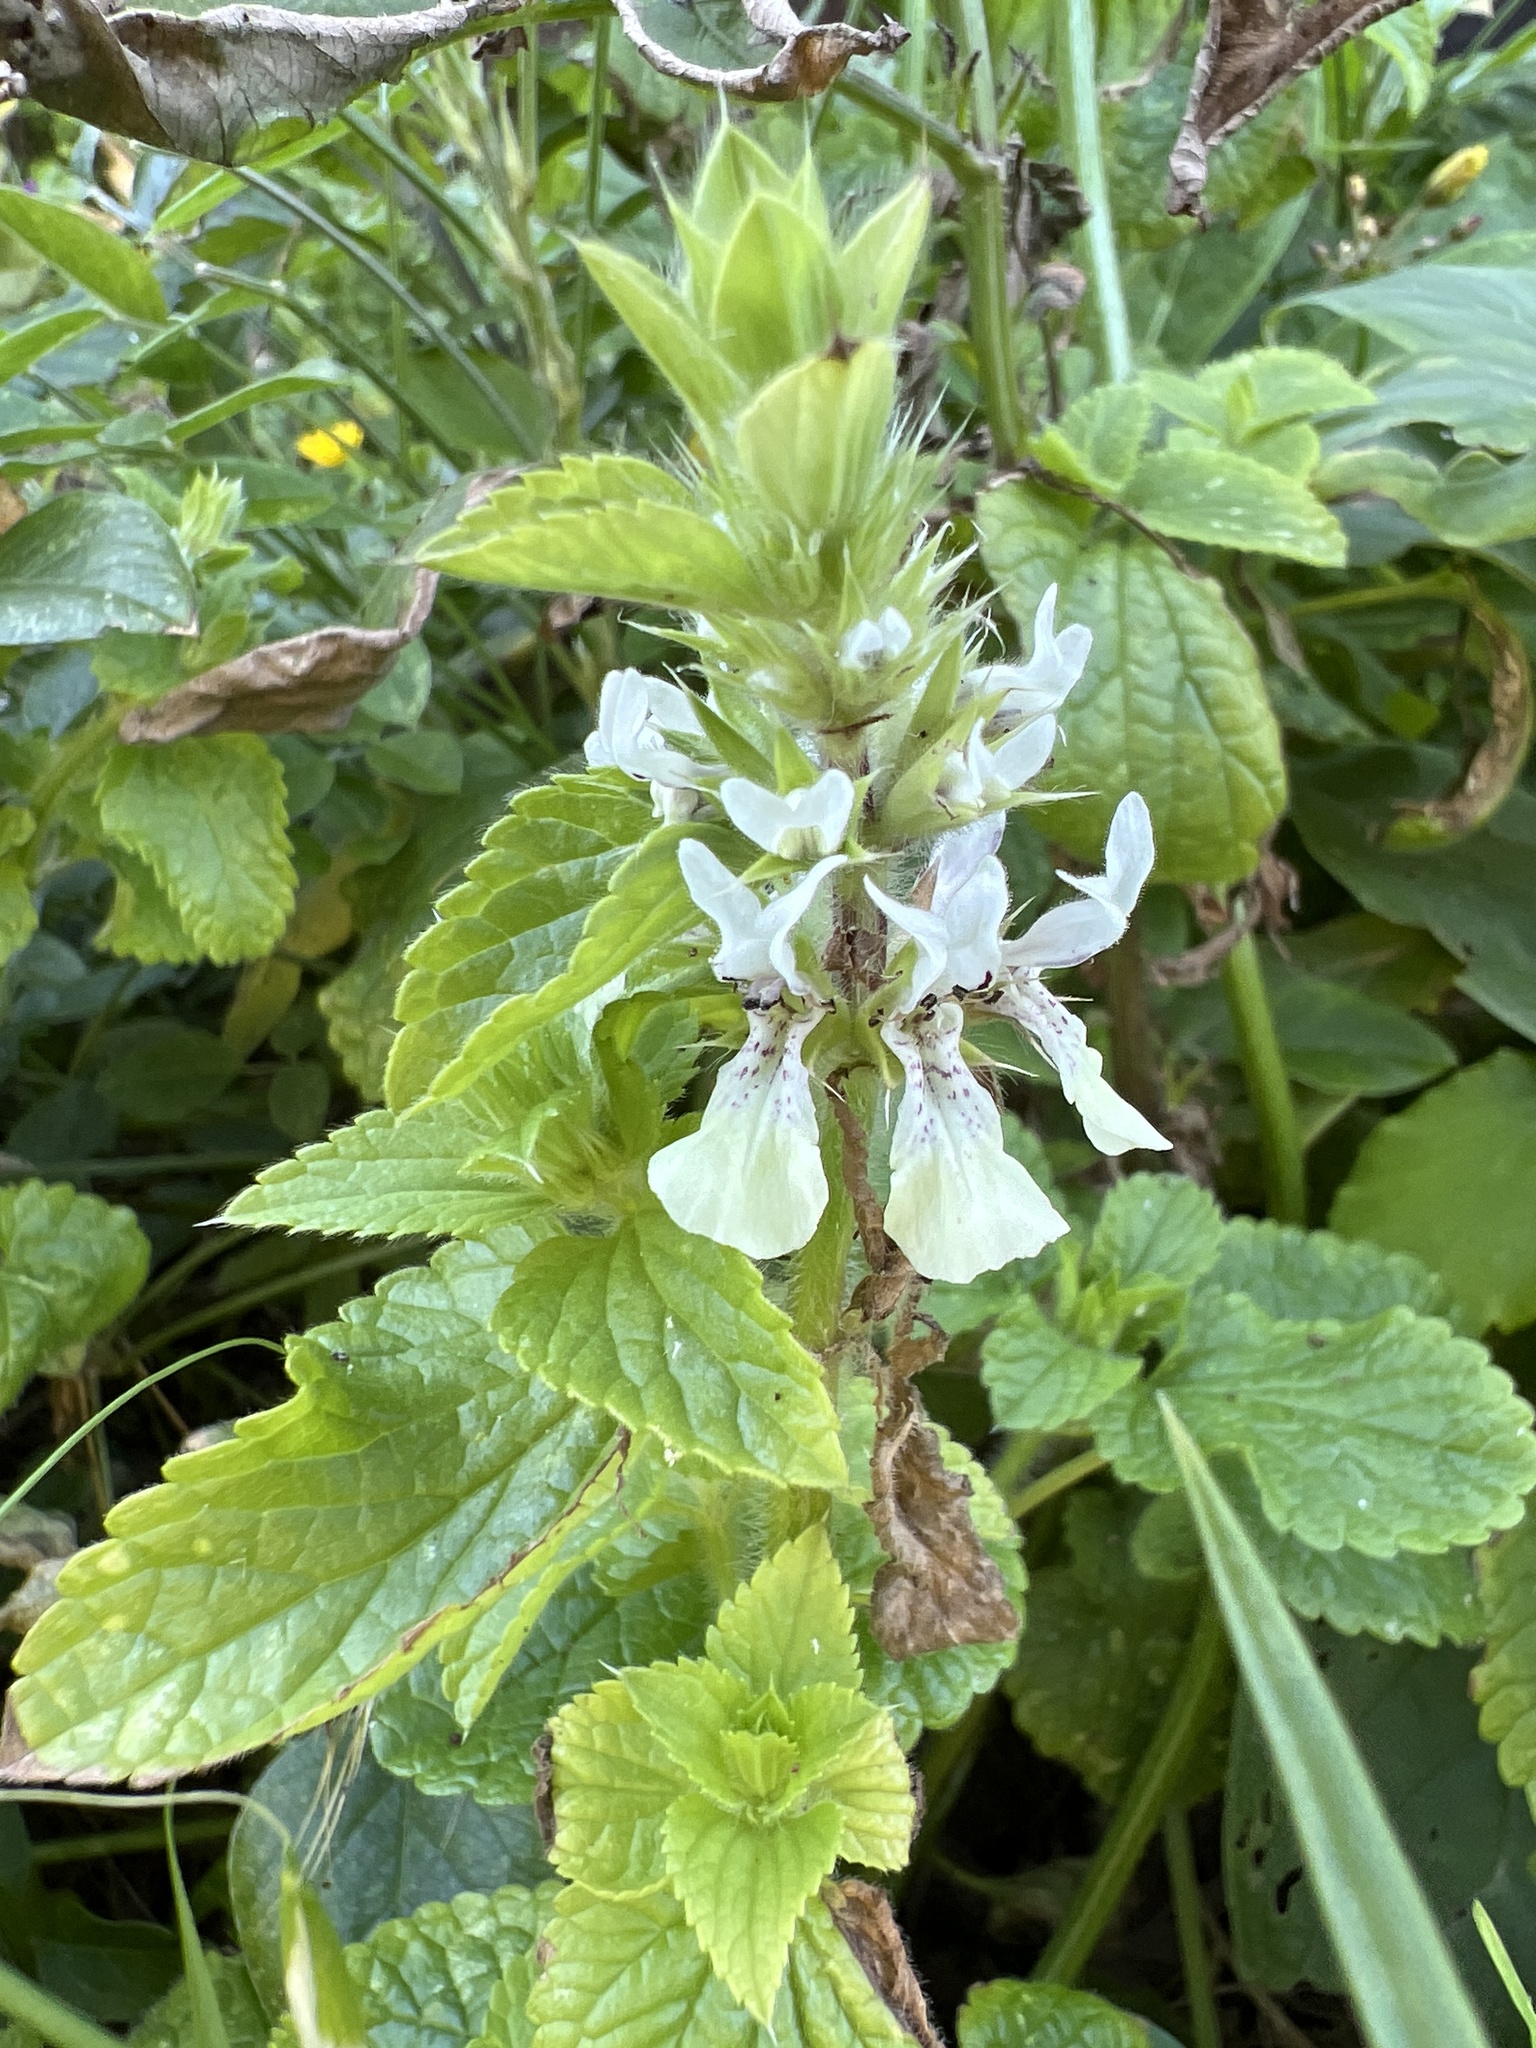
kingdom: Plantae
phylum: Tracheophyta
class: Magnoliopsida
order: Lamiales
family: Lamiaceae
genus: Stachys
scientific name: Stachys ocymastrum
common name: Italian hedgenettle
